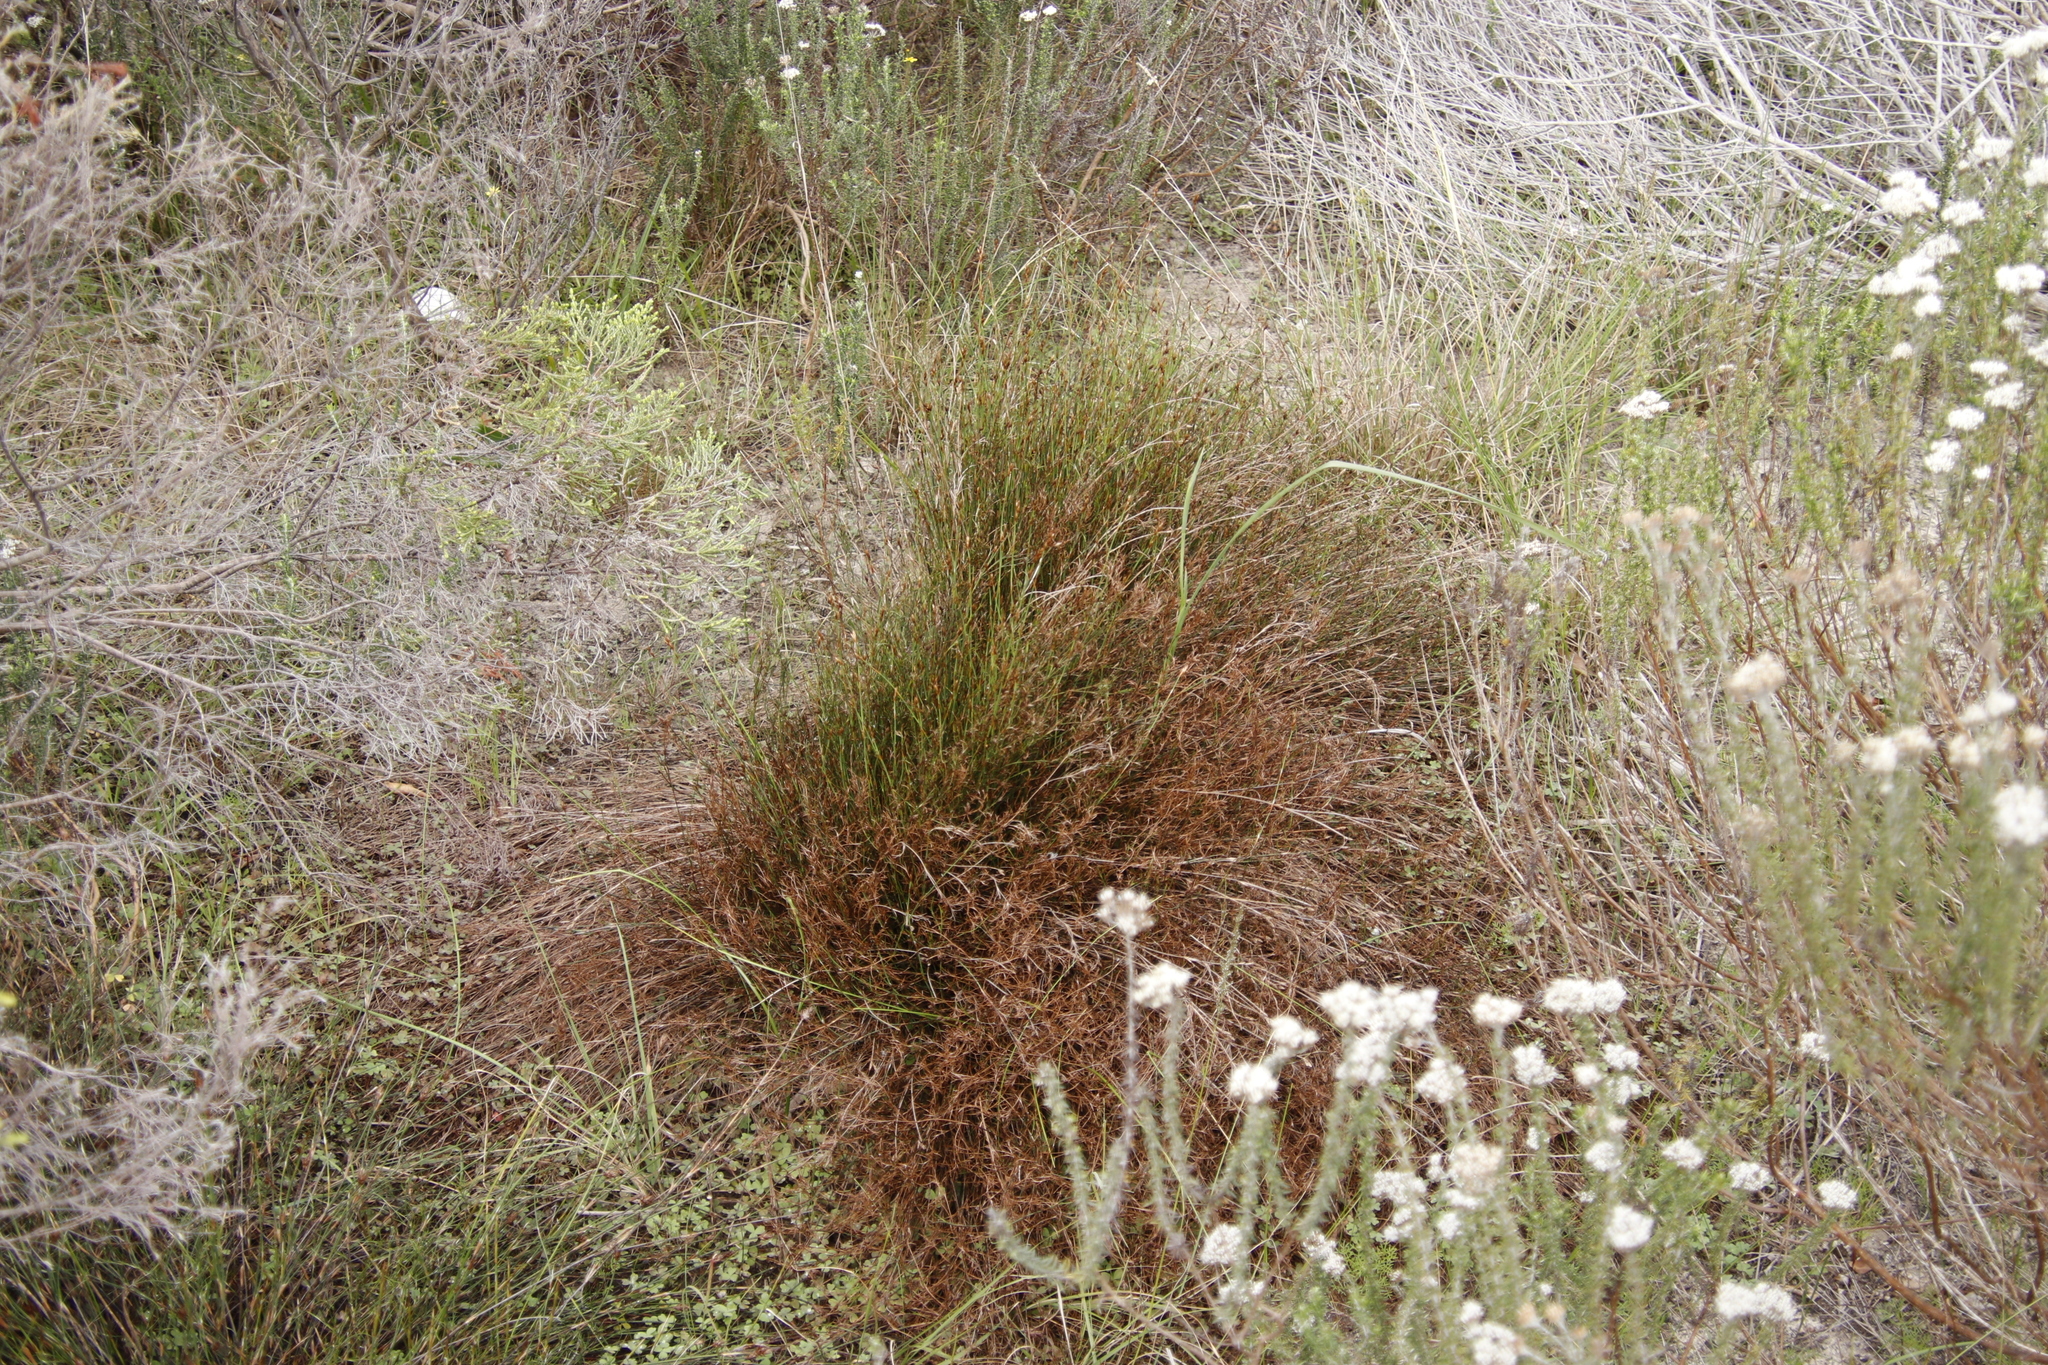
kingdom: Plantae
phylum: Tracheophyta
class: Liliopsida
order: Poales
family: Restionaceae
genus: Restio
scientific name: Restio capensis
